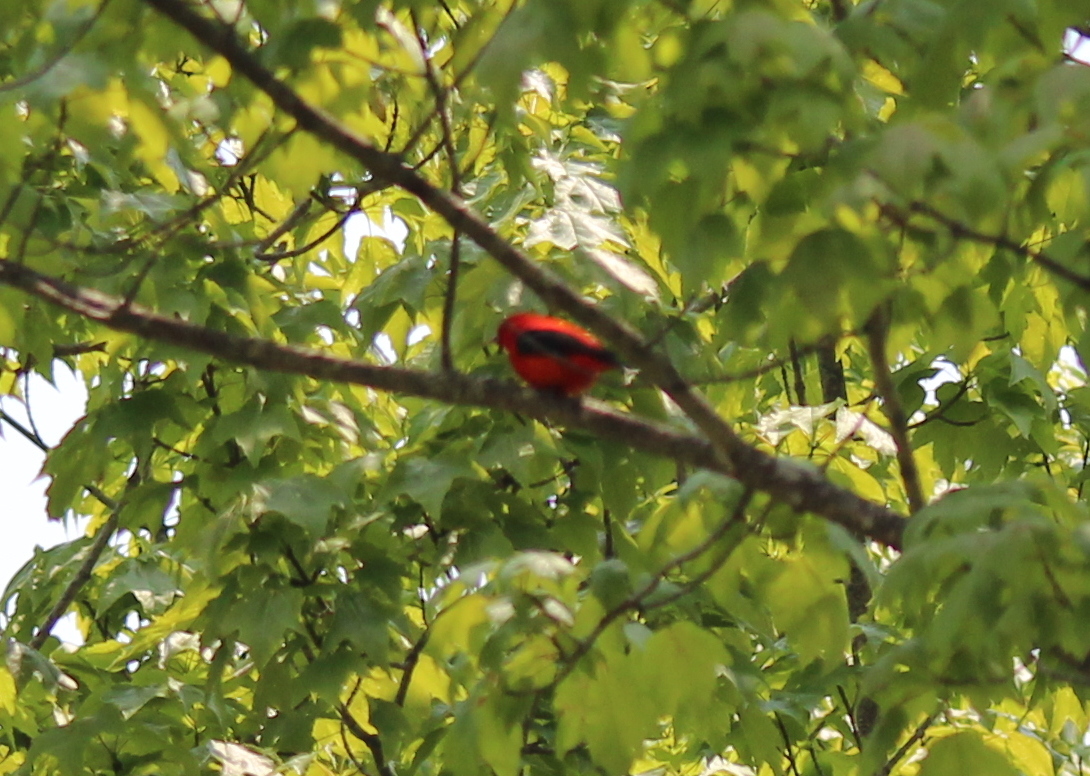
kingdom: Animalia
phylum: Chordata
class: Aves
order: Passeriformes
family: Cardinalidae
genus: Piranga
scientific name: Piranga olivacea
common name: Scarlet tanager
